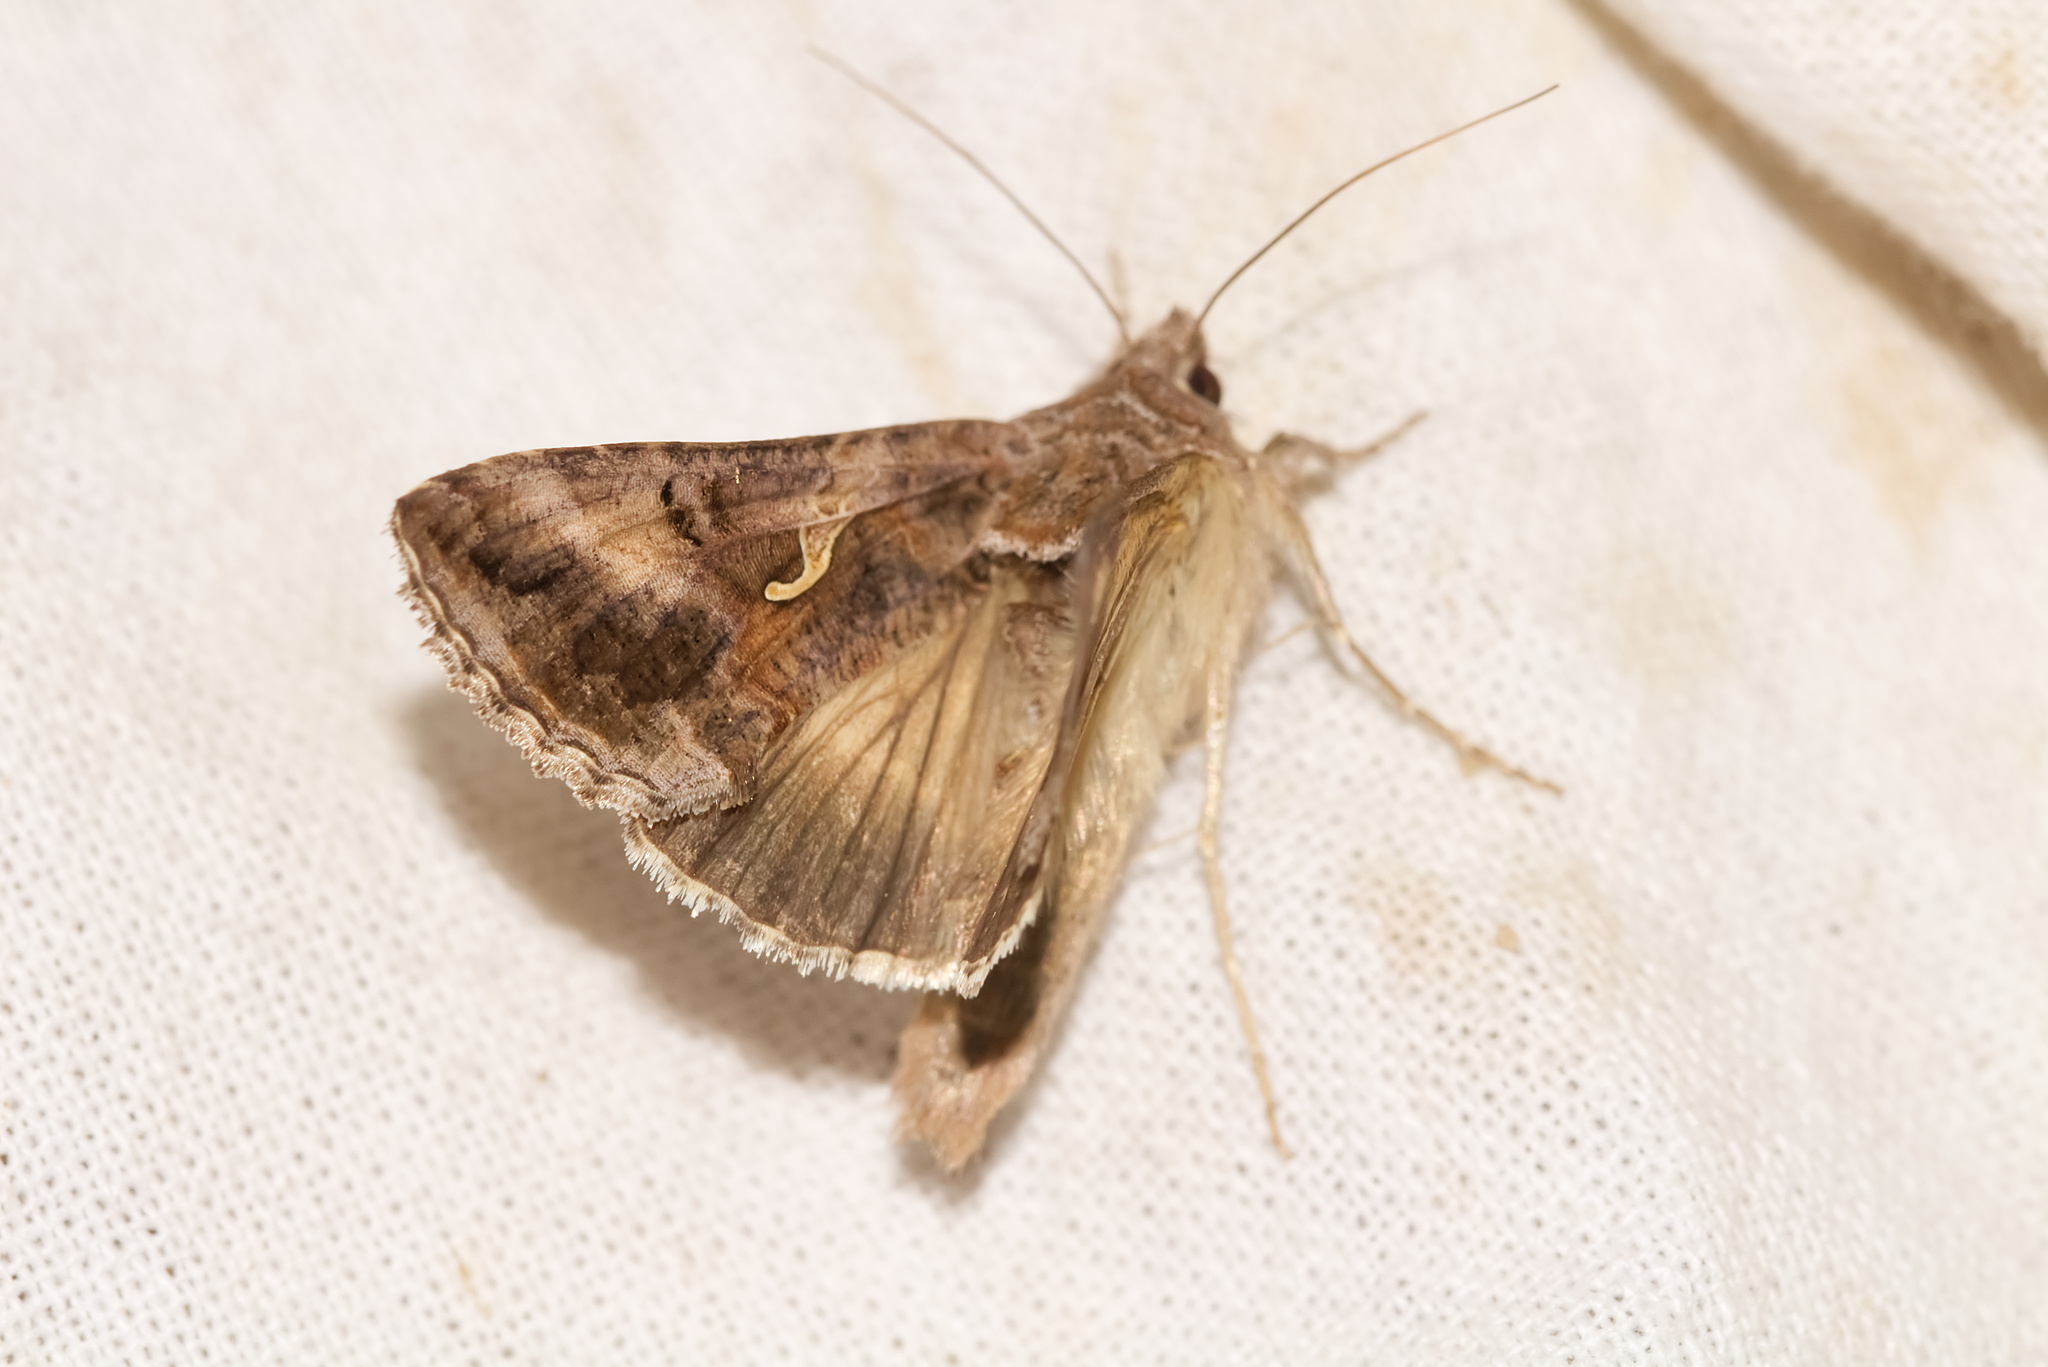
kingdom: Animalia
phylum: Arthropoda
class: Insecta
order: Lepidoptera
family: Noctuidae
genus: Autographa
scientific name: Autographa gamma
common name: Silver y
